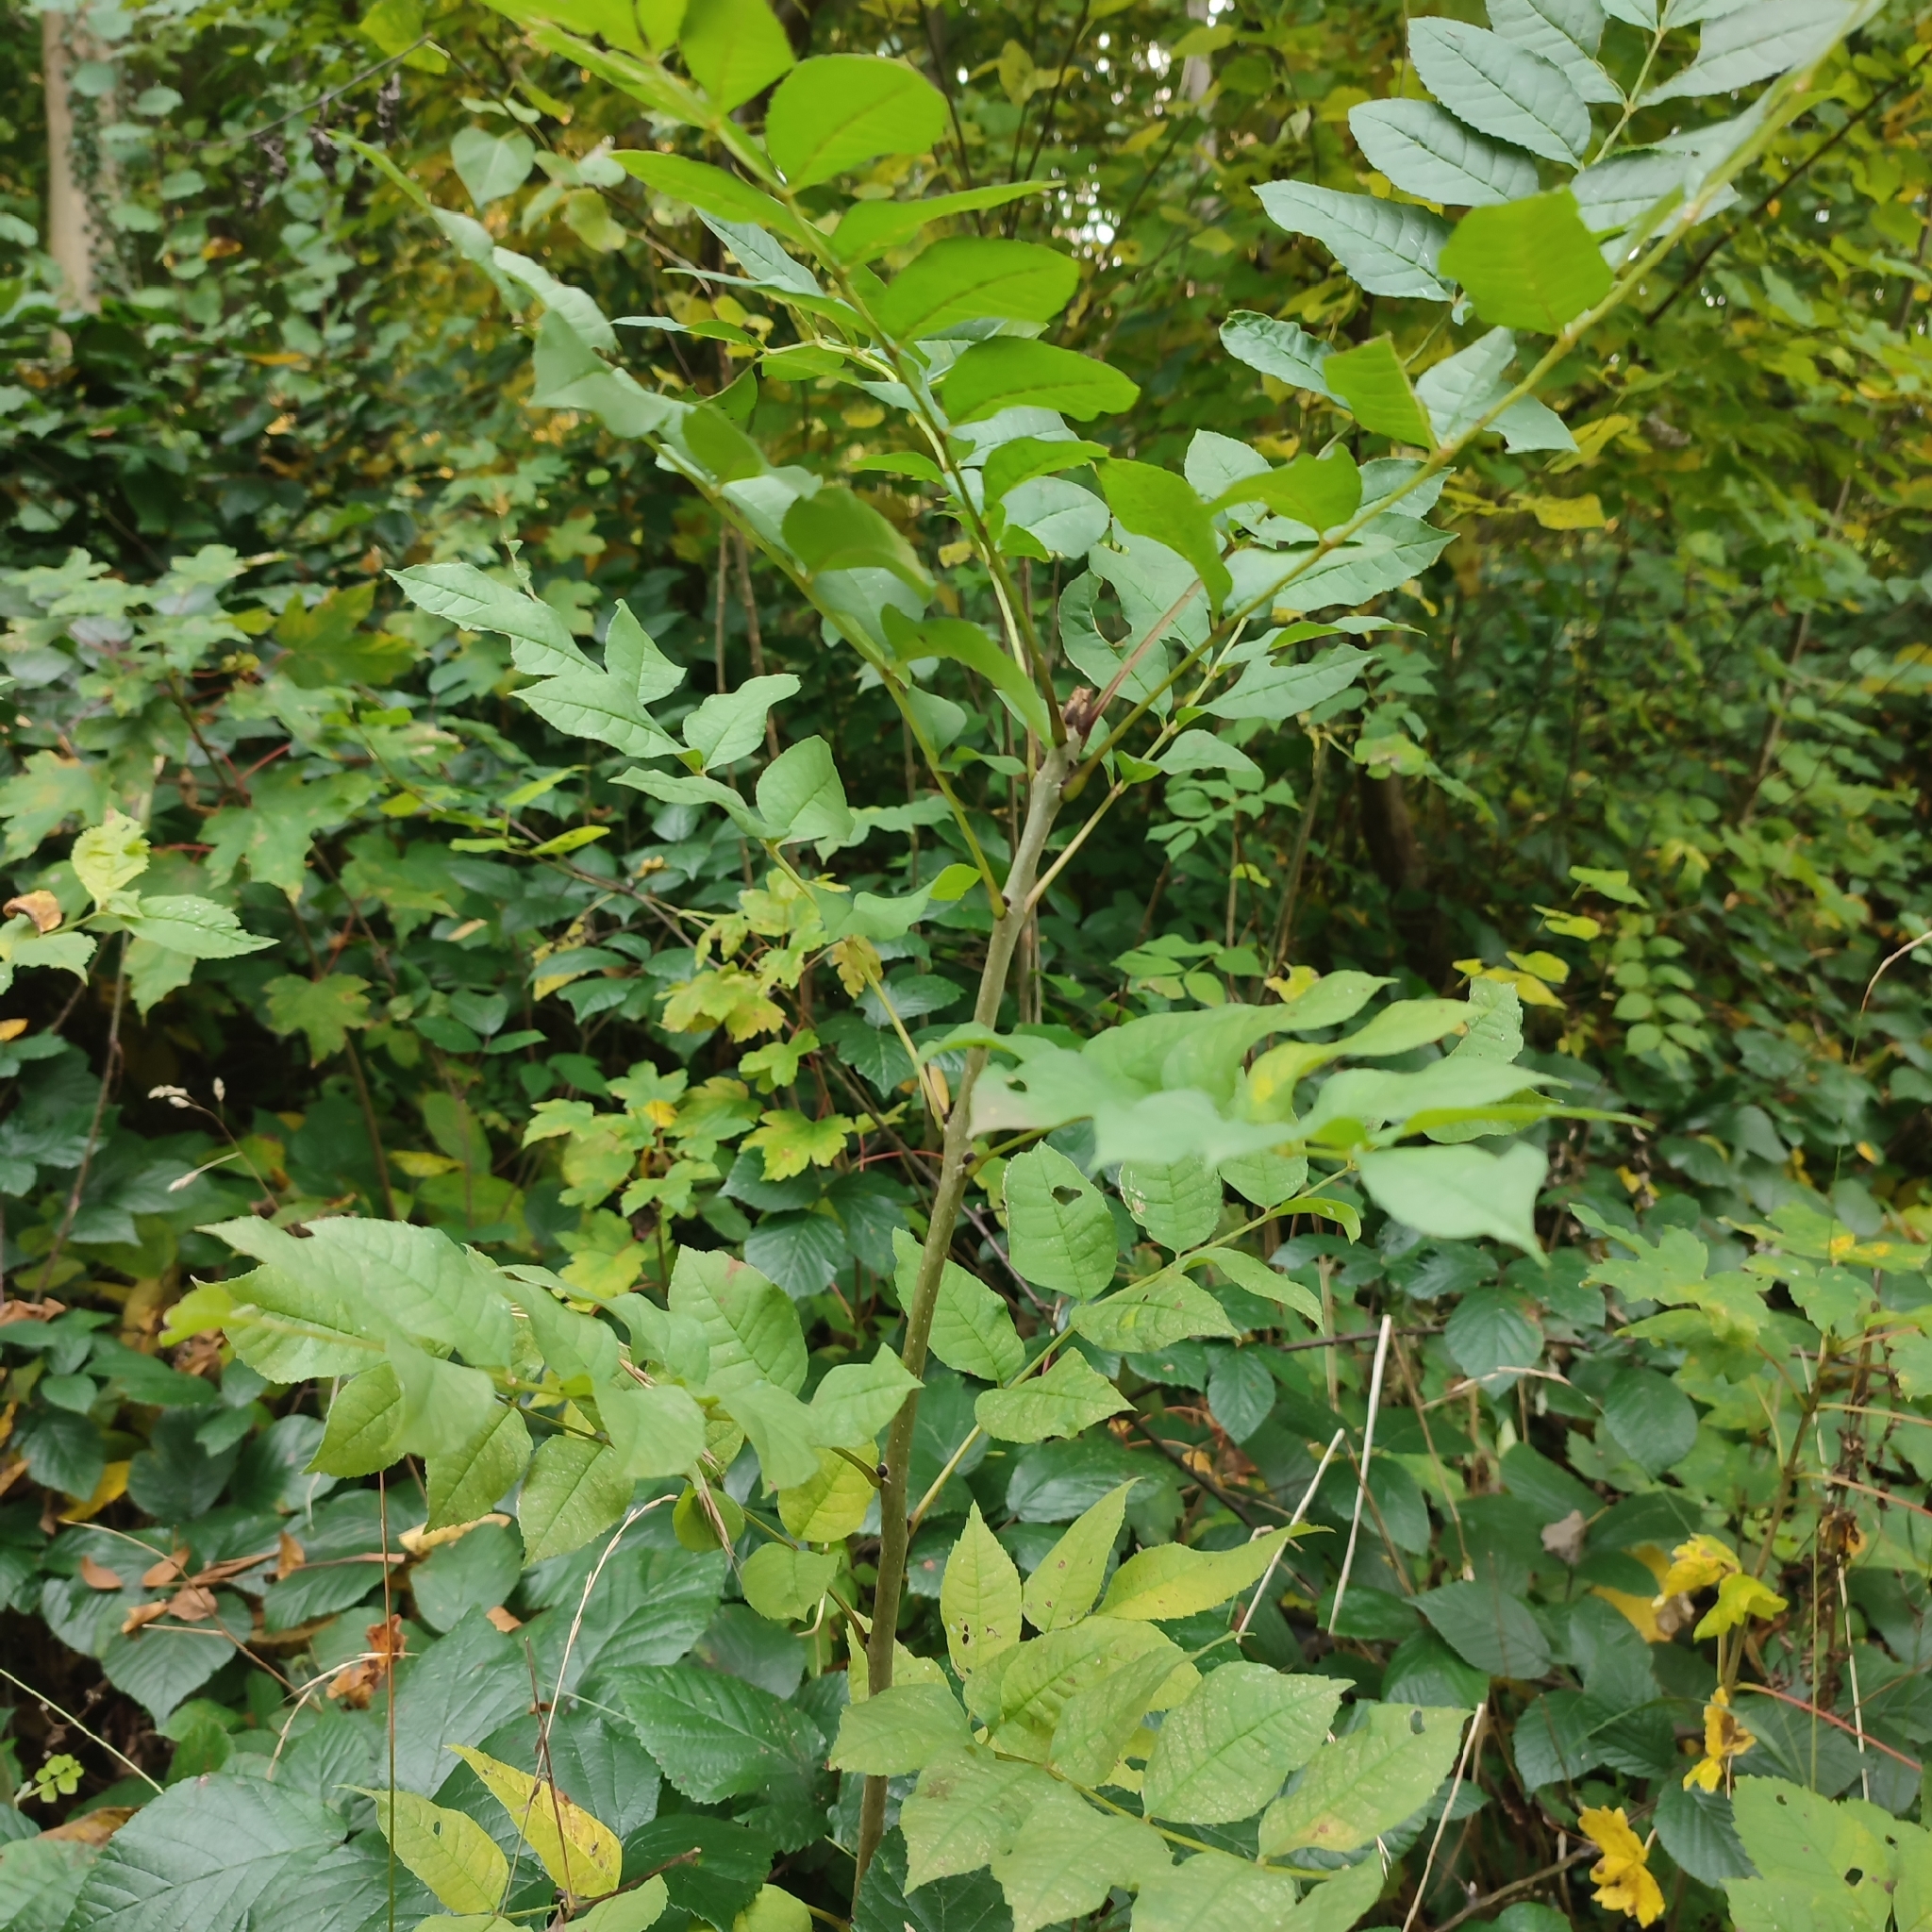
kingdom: Plantae
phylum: Tracheophyta
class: Magnoliopsida
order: Lamiales
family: Oleaceae
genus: Fraxinus
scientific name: Fraxinus excelsior
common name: European ash
